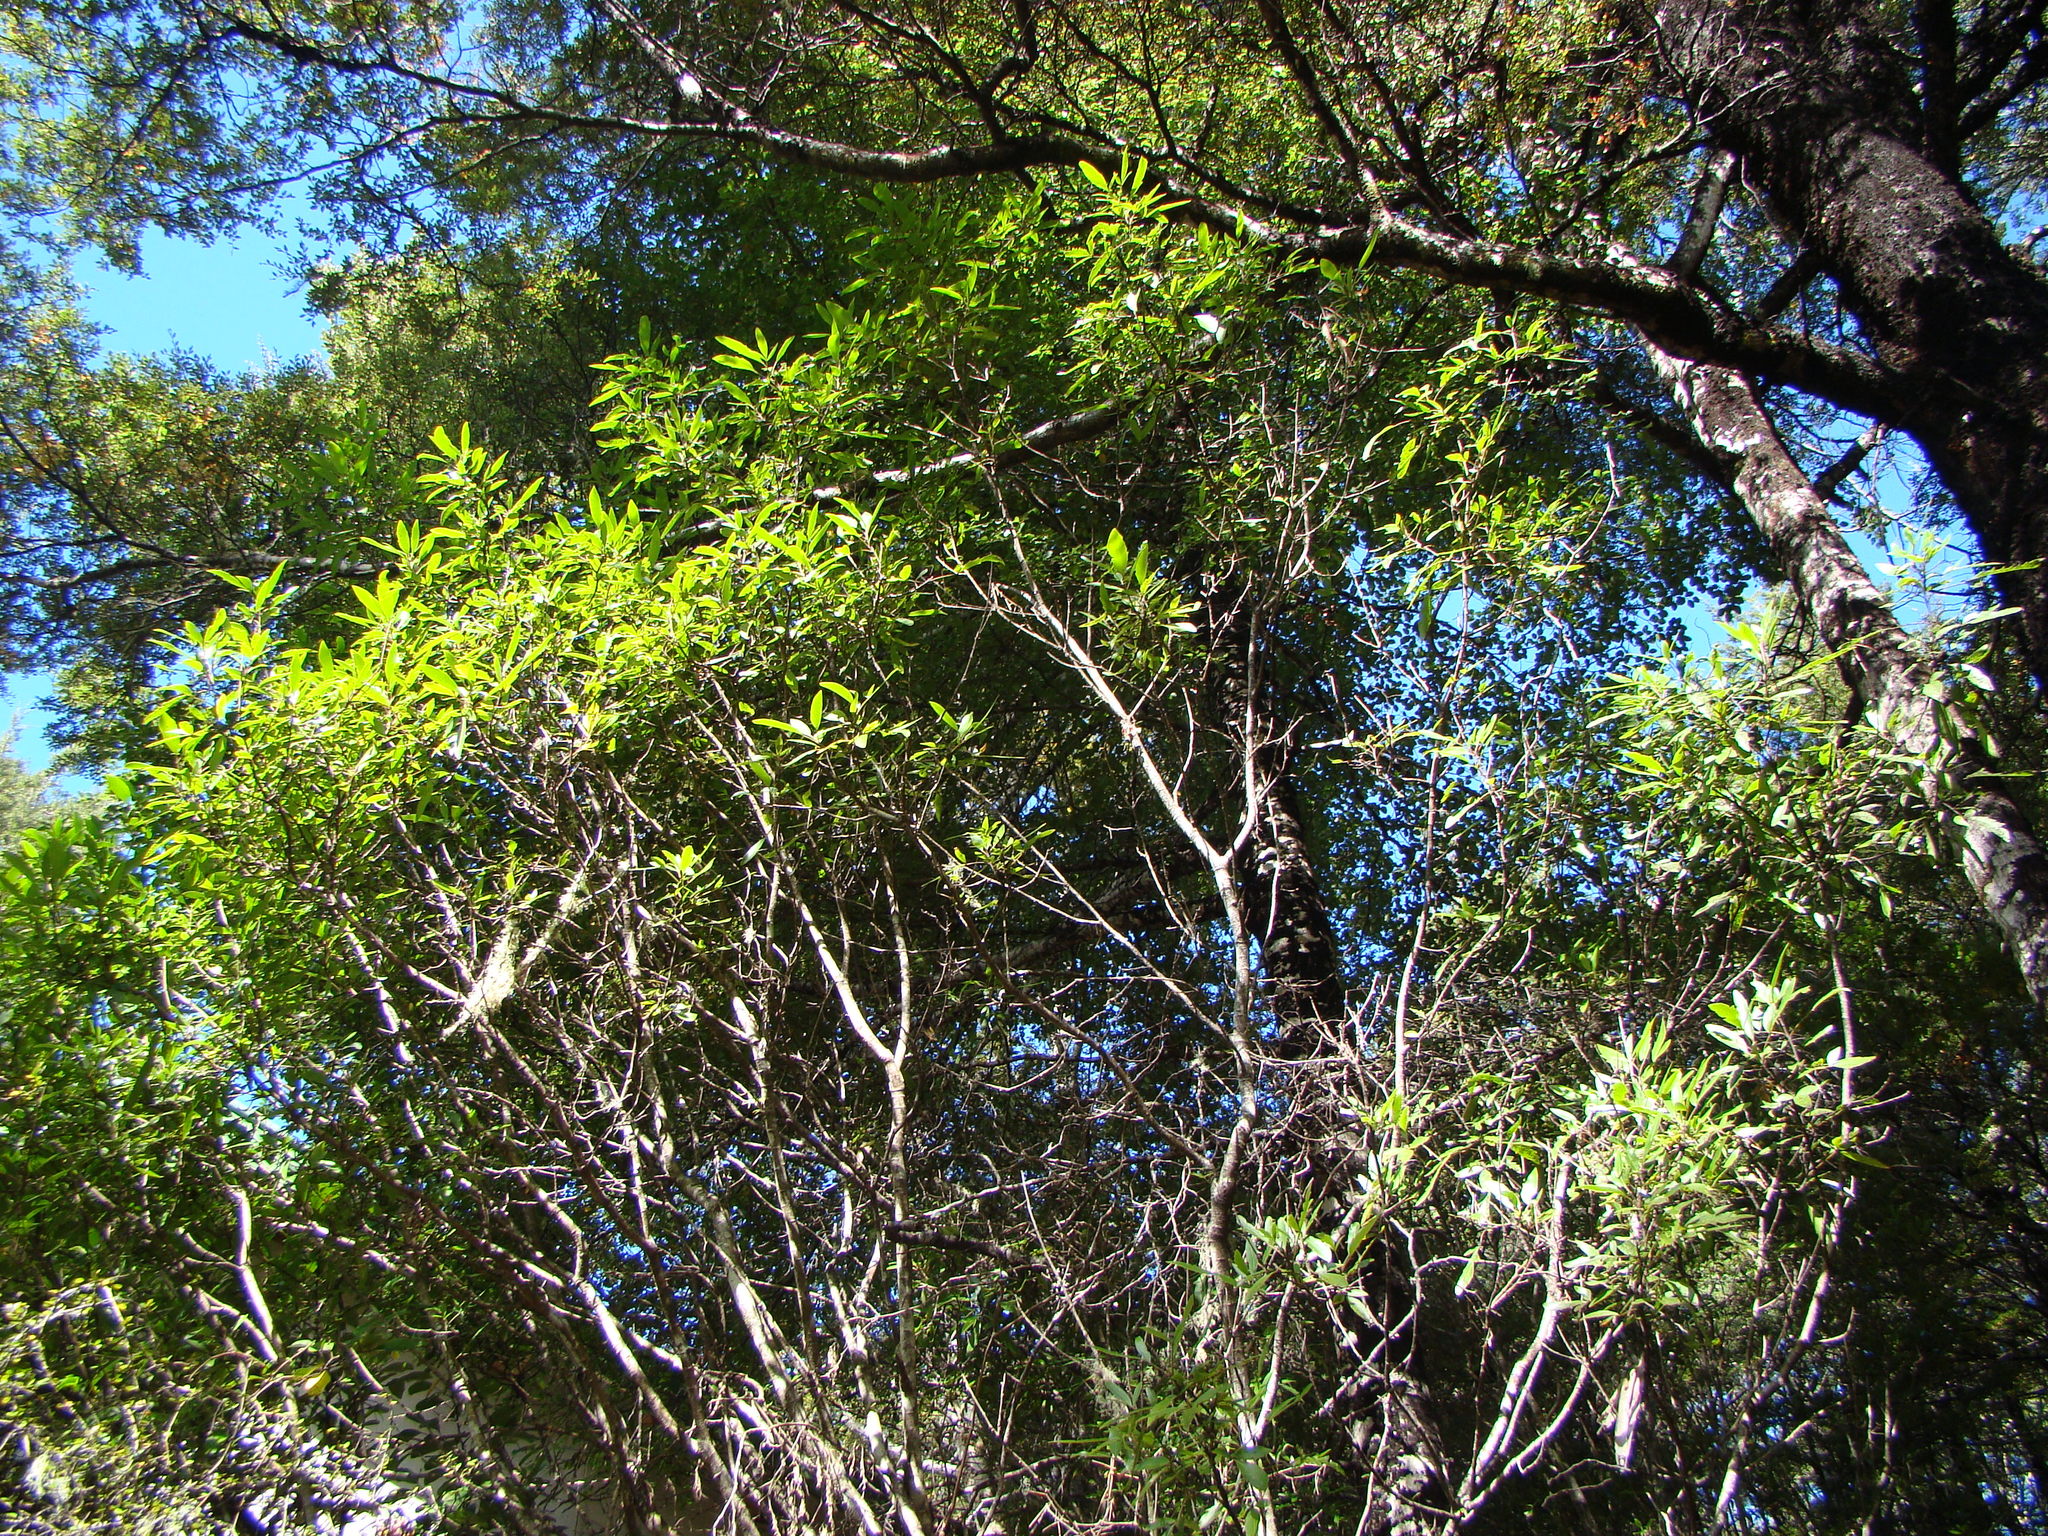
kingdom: Plantae
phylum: Tracheophyta
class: Magnoliopsida
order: Apiales
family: Araliaceae
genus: Raukaua
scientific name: Raukaua simplex
